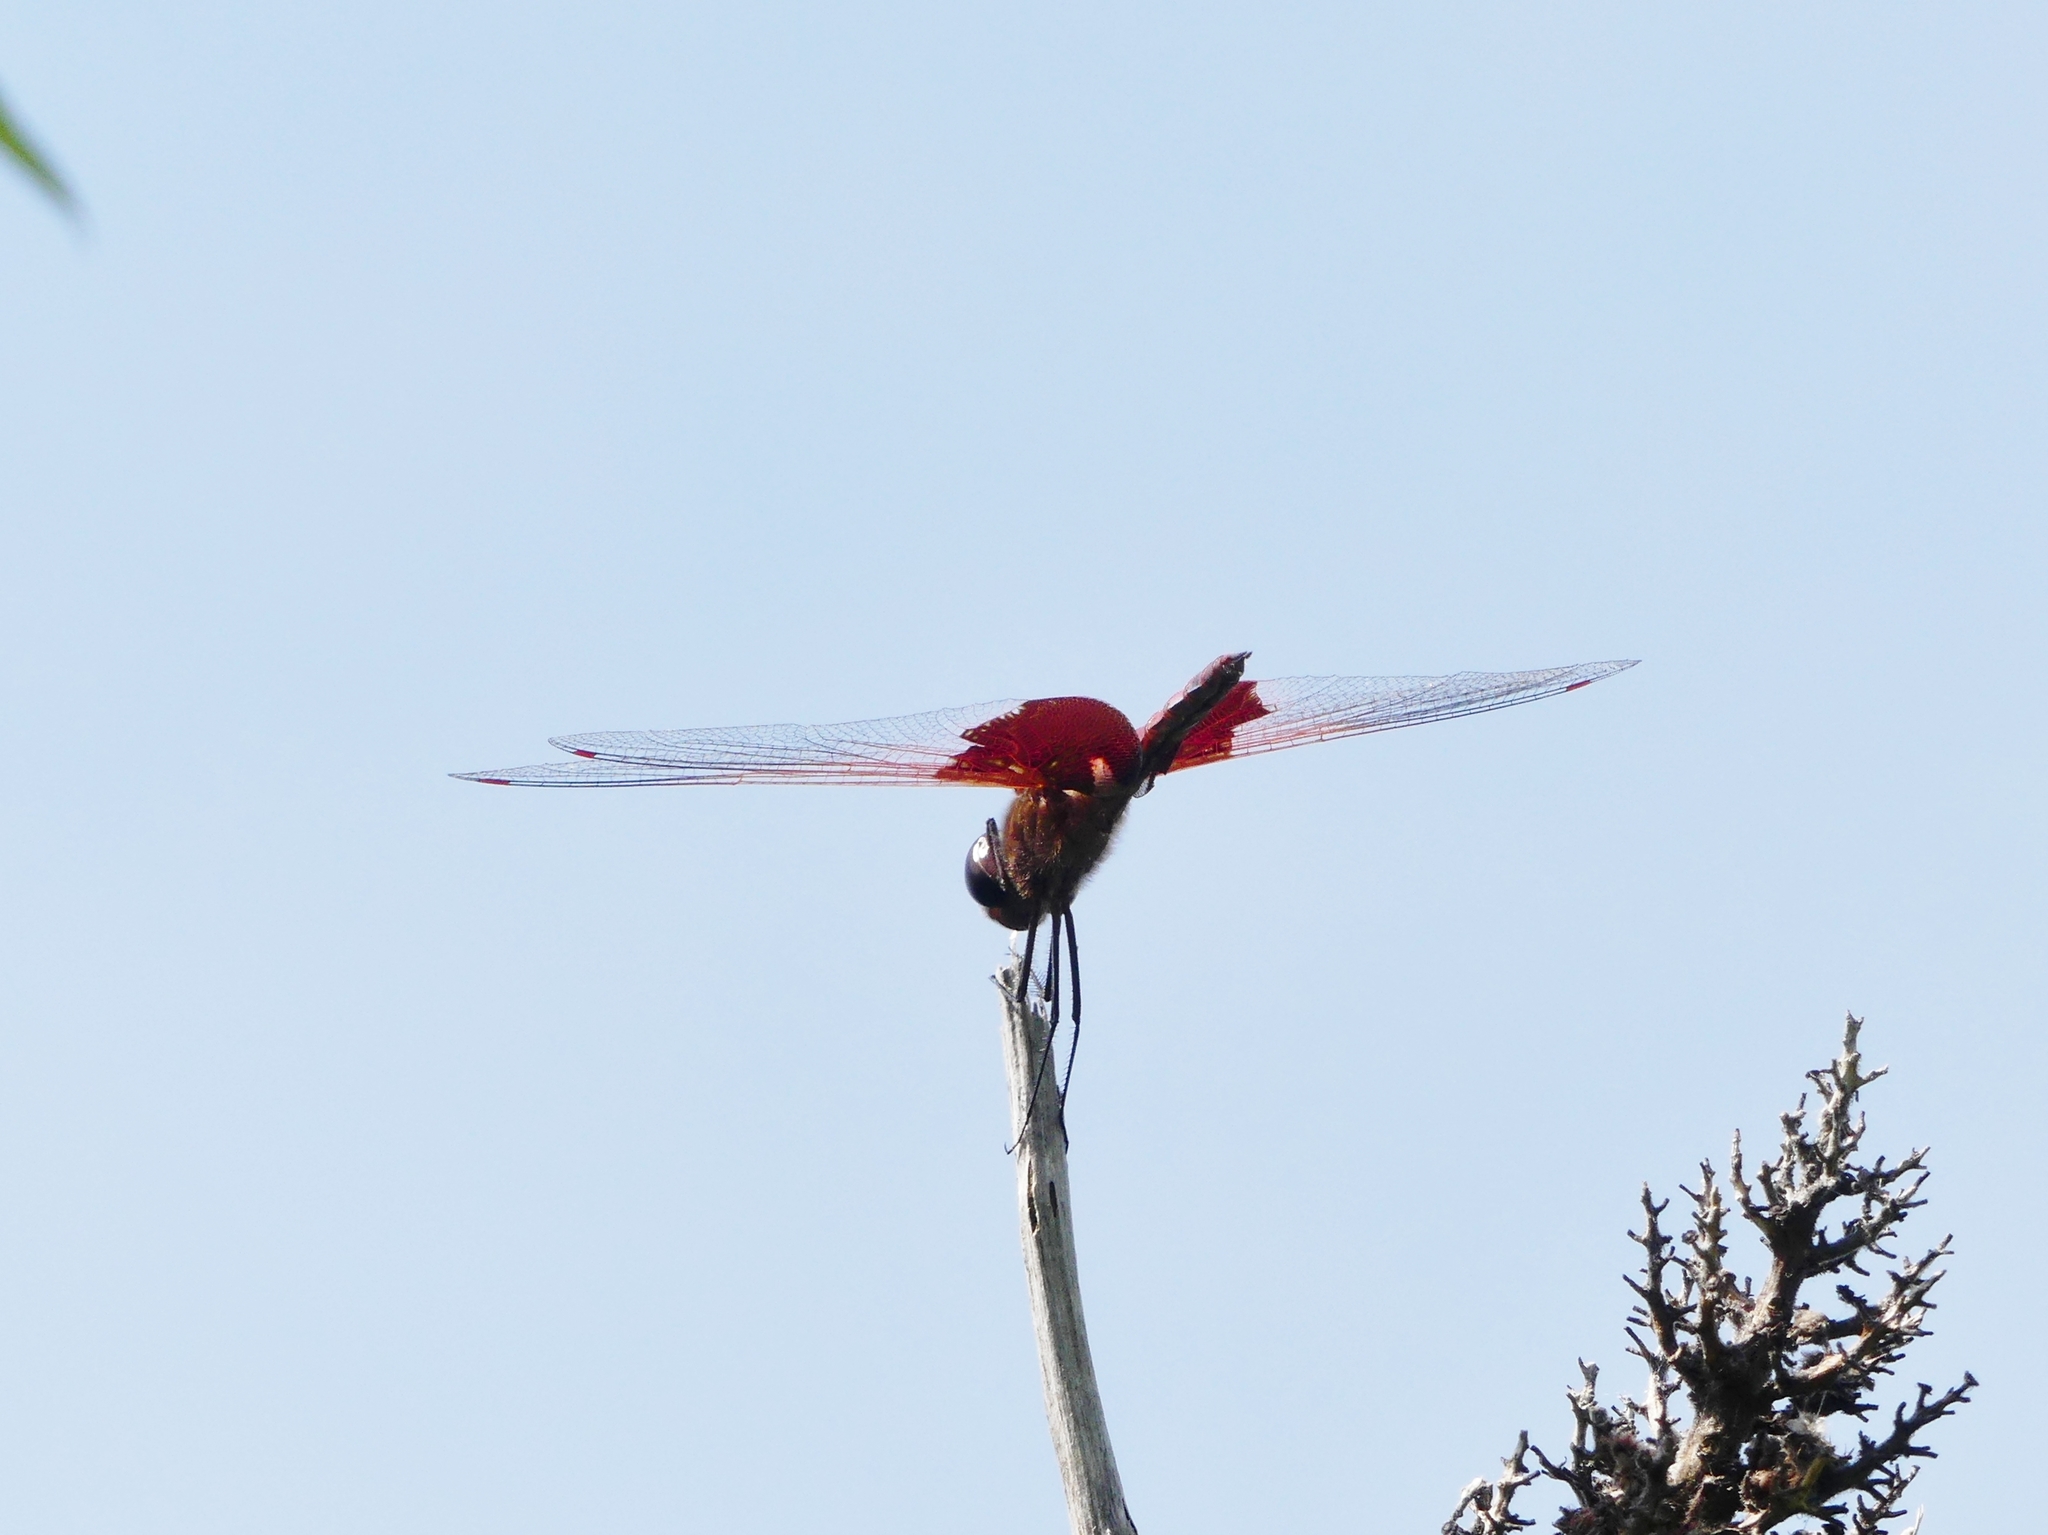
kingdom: Animalia
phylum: Arthropoda
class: Insecta
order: Odonata
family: Libellulidae
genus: Tramea
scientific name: Tramea carolina
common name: Carolina saddlebags
